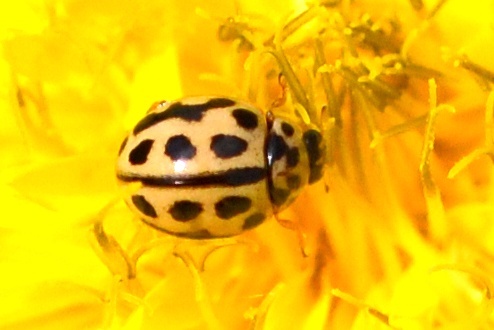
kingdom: Animalia
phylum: Arthropoda
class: Insecta
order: Coleoptera
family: Coccinellidae
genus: Tytthaspis
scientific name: Tytthaspis sedecimpunctata
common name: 16-spot ladybird
